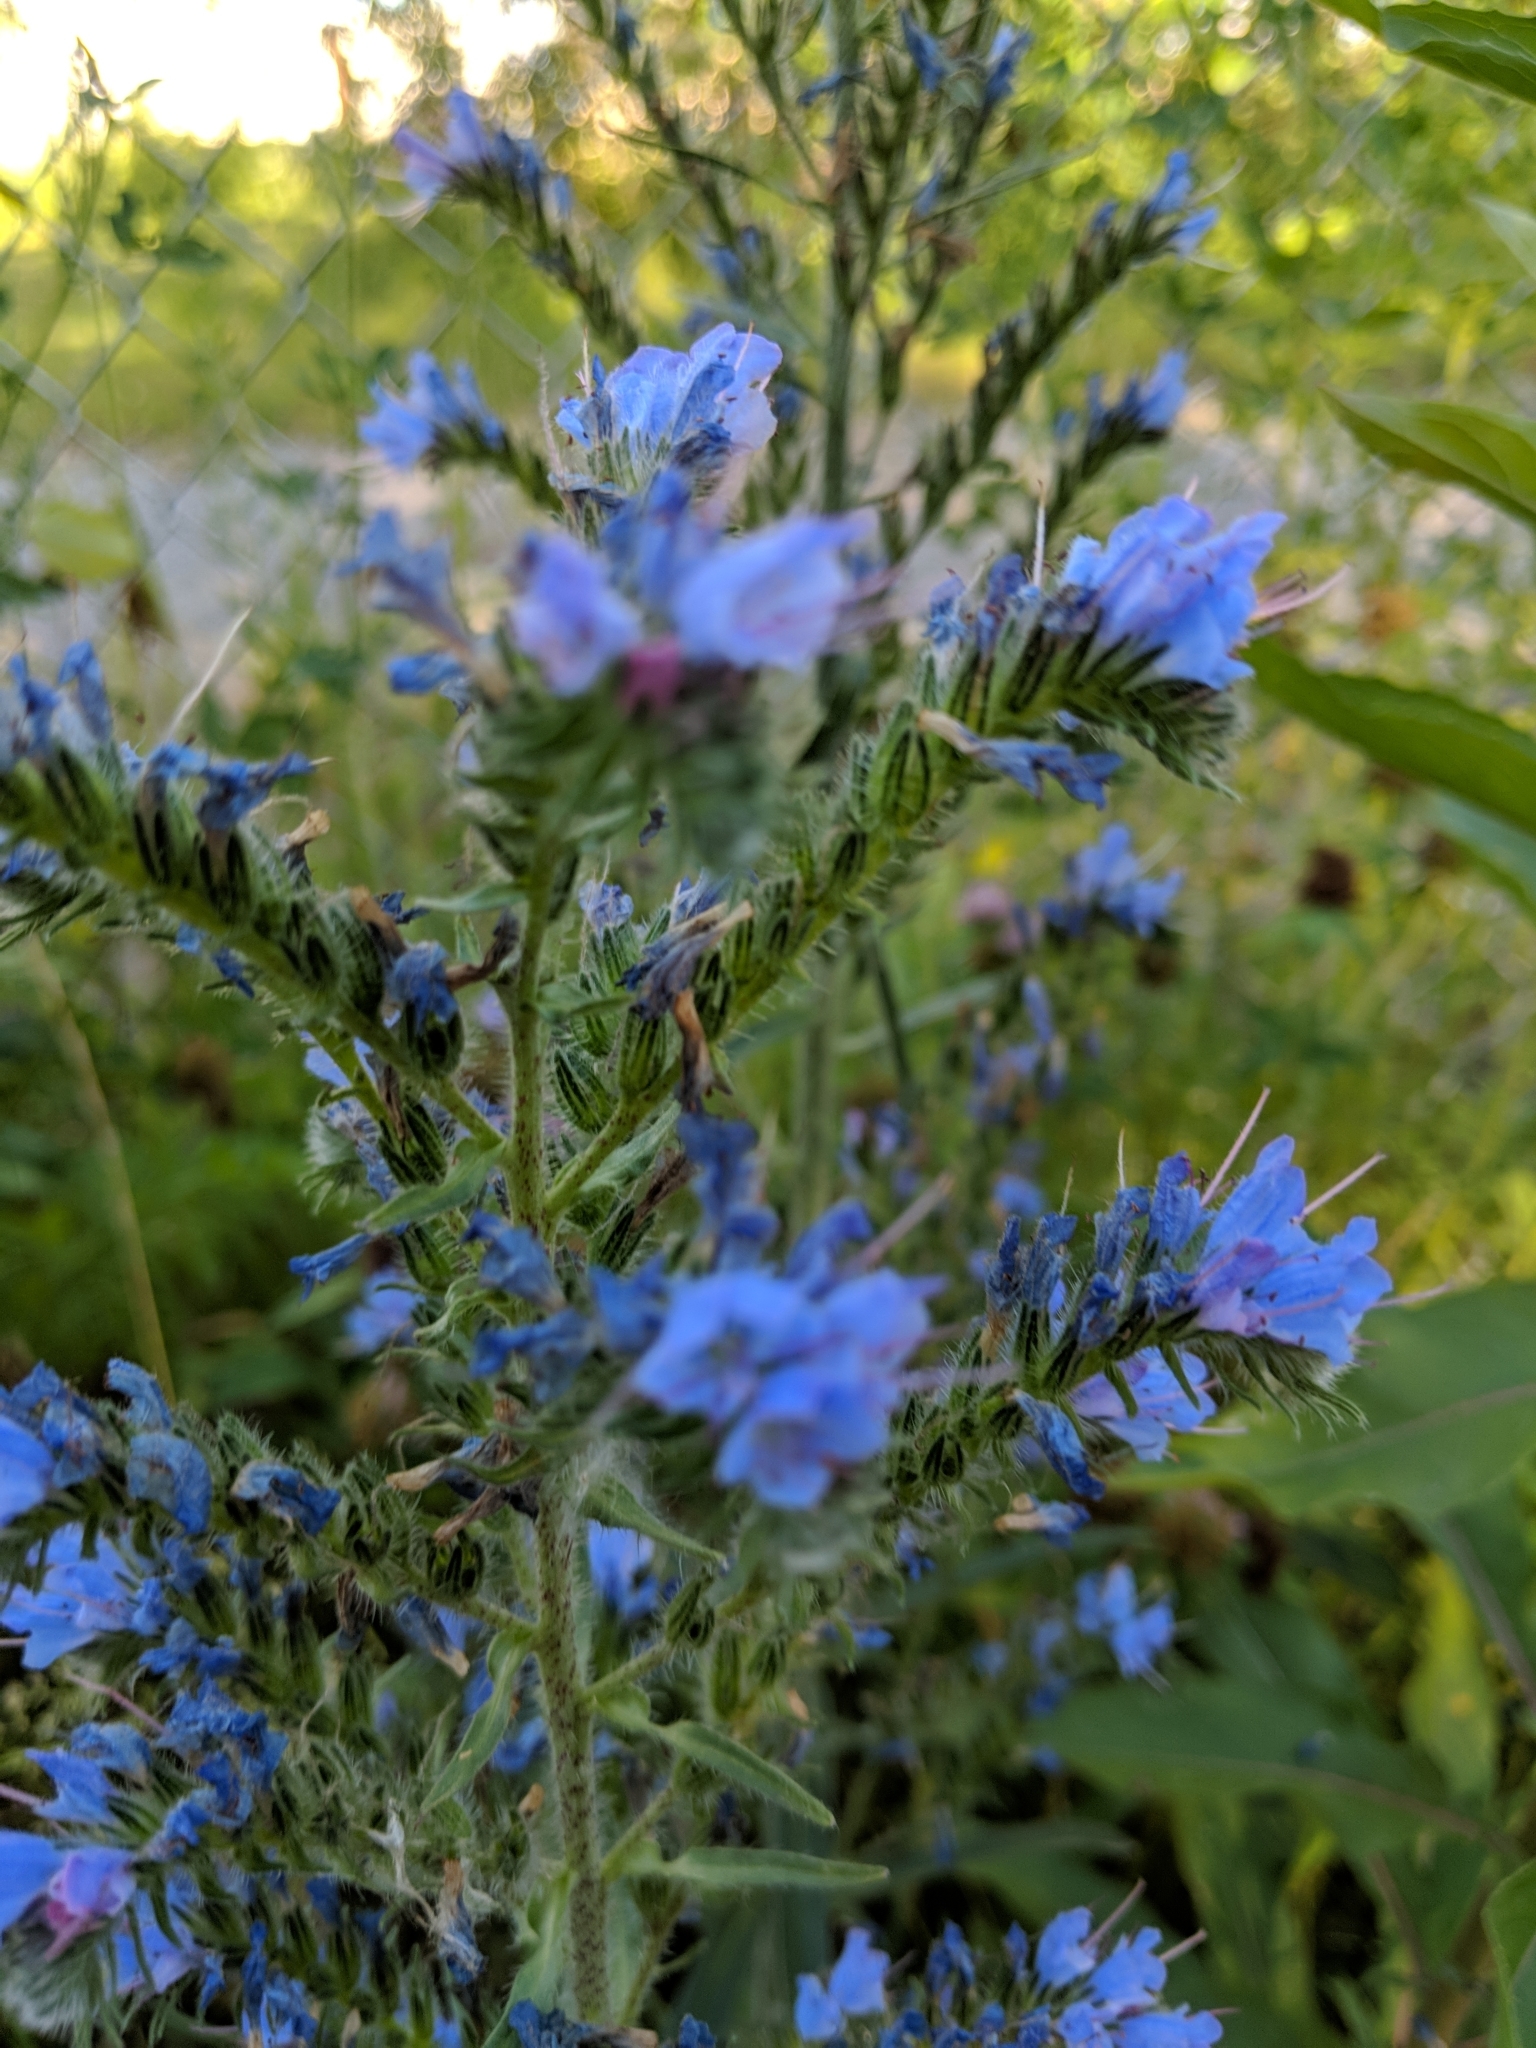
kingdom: Plantae
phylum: Tracheophyta
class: Magnoliopsida
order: Boraginales
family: Boraginaceae
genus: Echium
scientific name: Echium vulgare
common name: Common viper's bugloss
